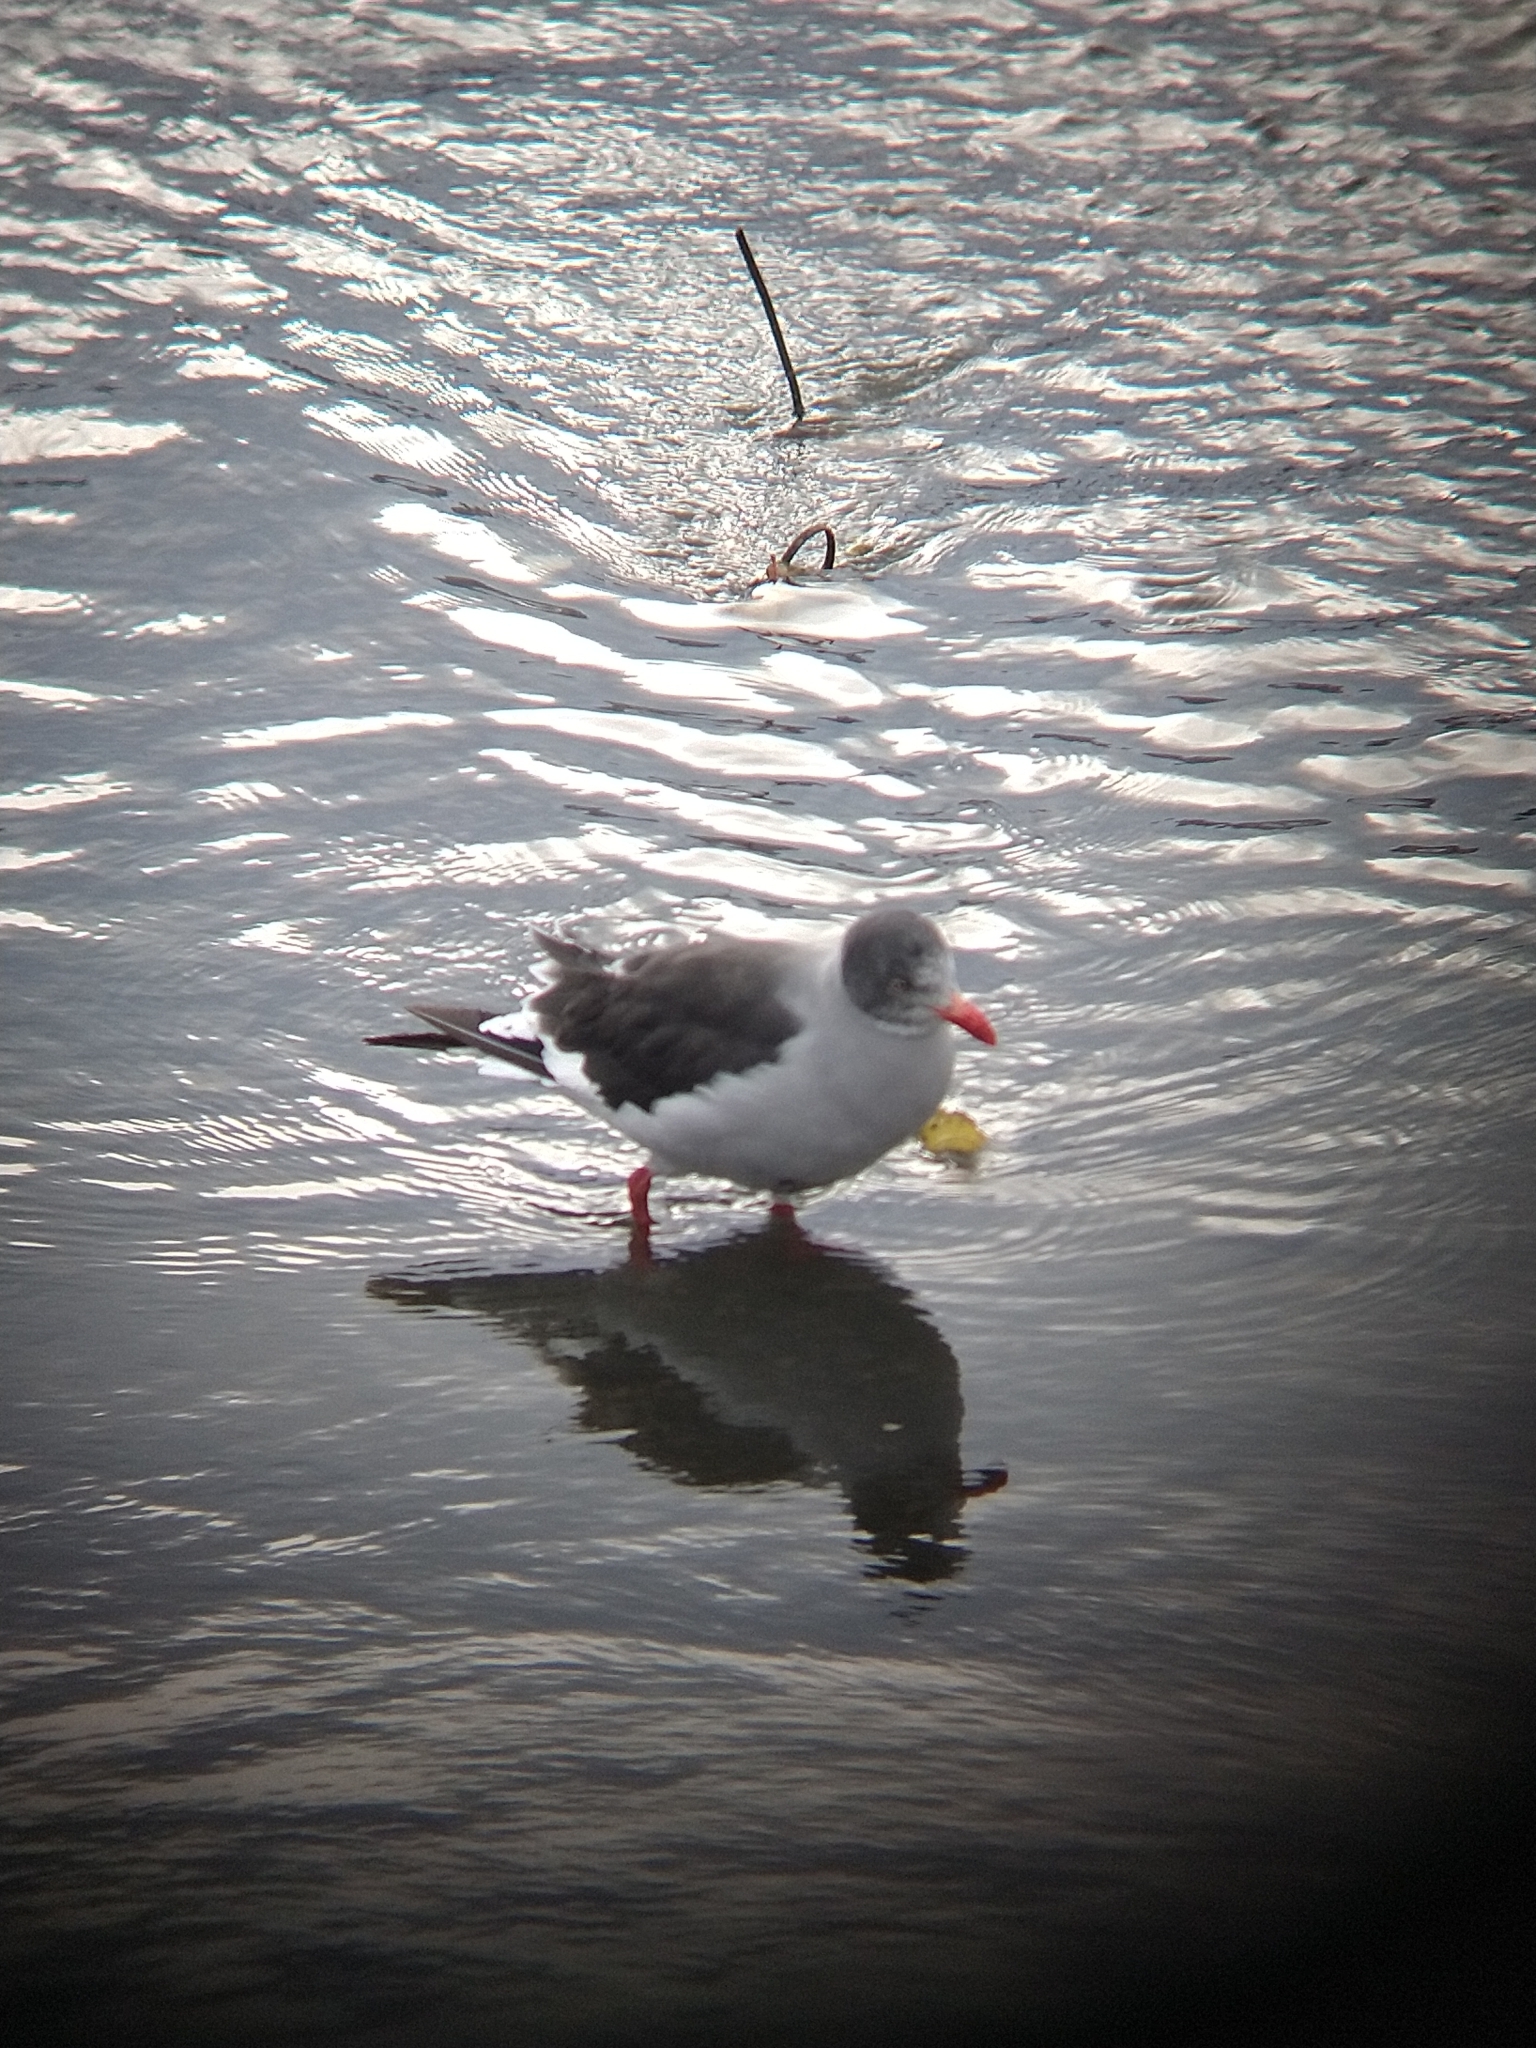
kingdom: Animalia
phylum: Chordata
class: Aves
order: Charadriiformes
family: Laridae
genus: Leucophaeus
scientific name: Leucophaeus scoresbii
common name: Dolphin gull
